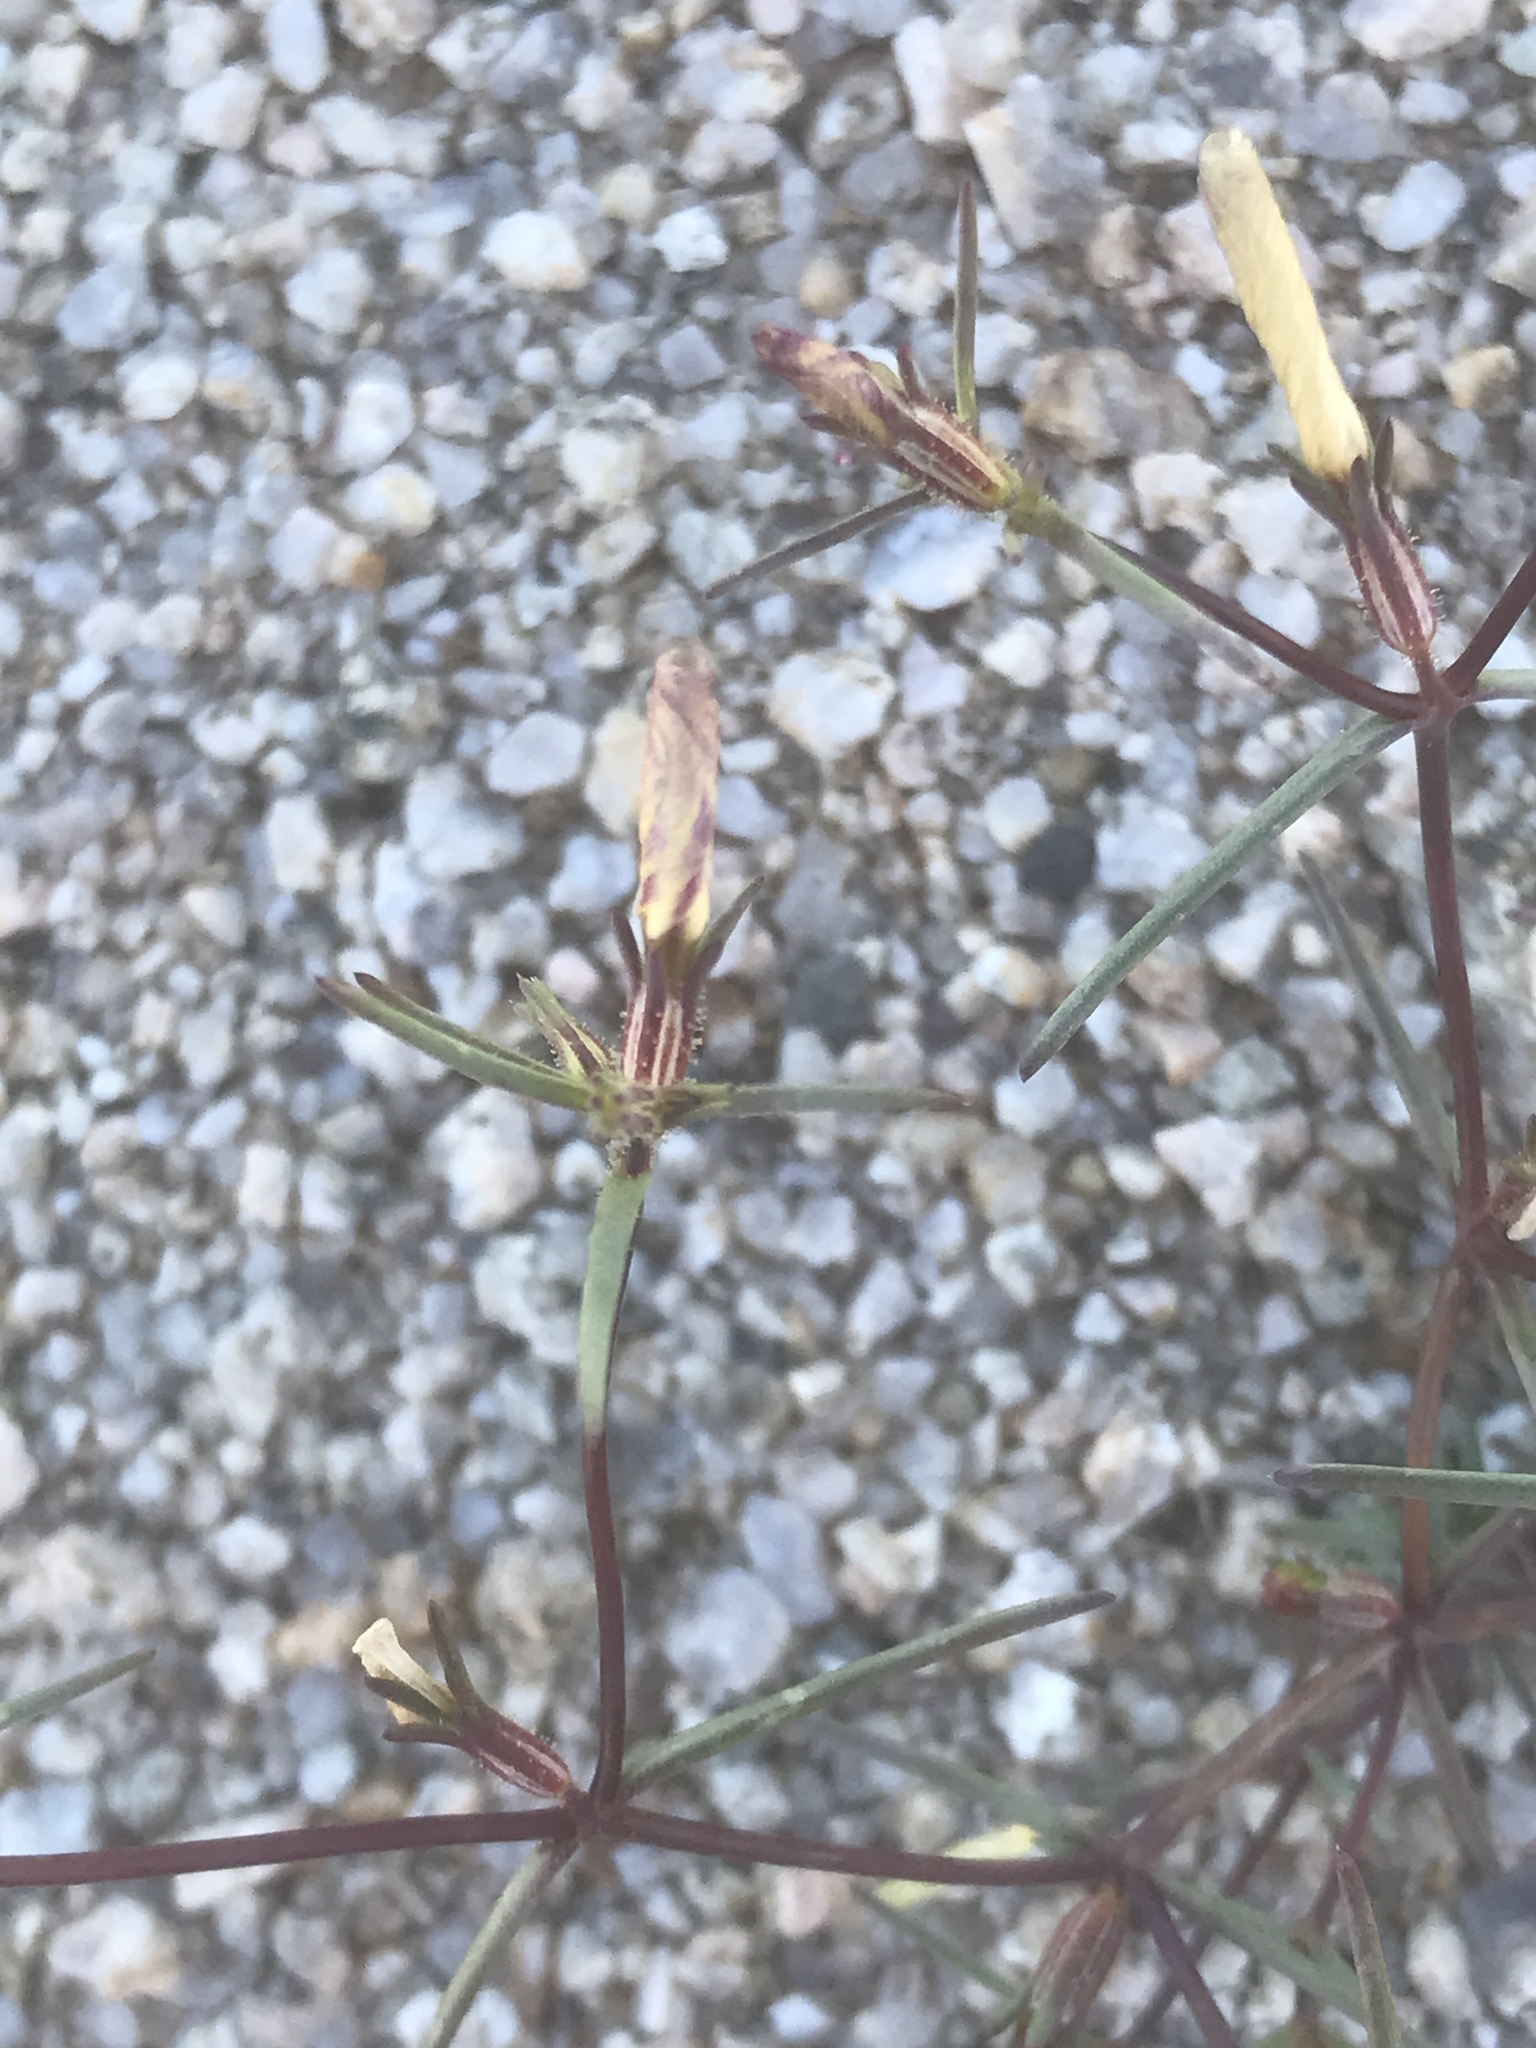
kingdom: Plantae
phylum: Tracheophyta
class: Magnoliopsida
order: Ericales
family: Polemoniaceae
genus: Linanthus
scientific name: Linanthus jonesii
